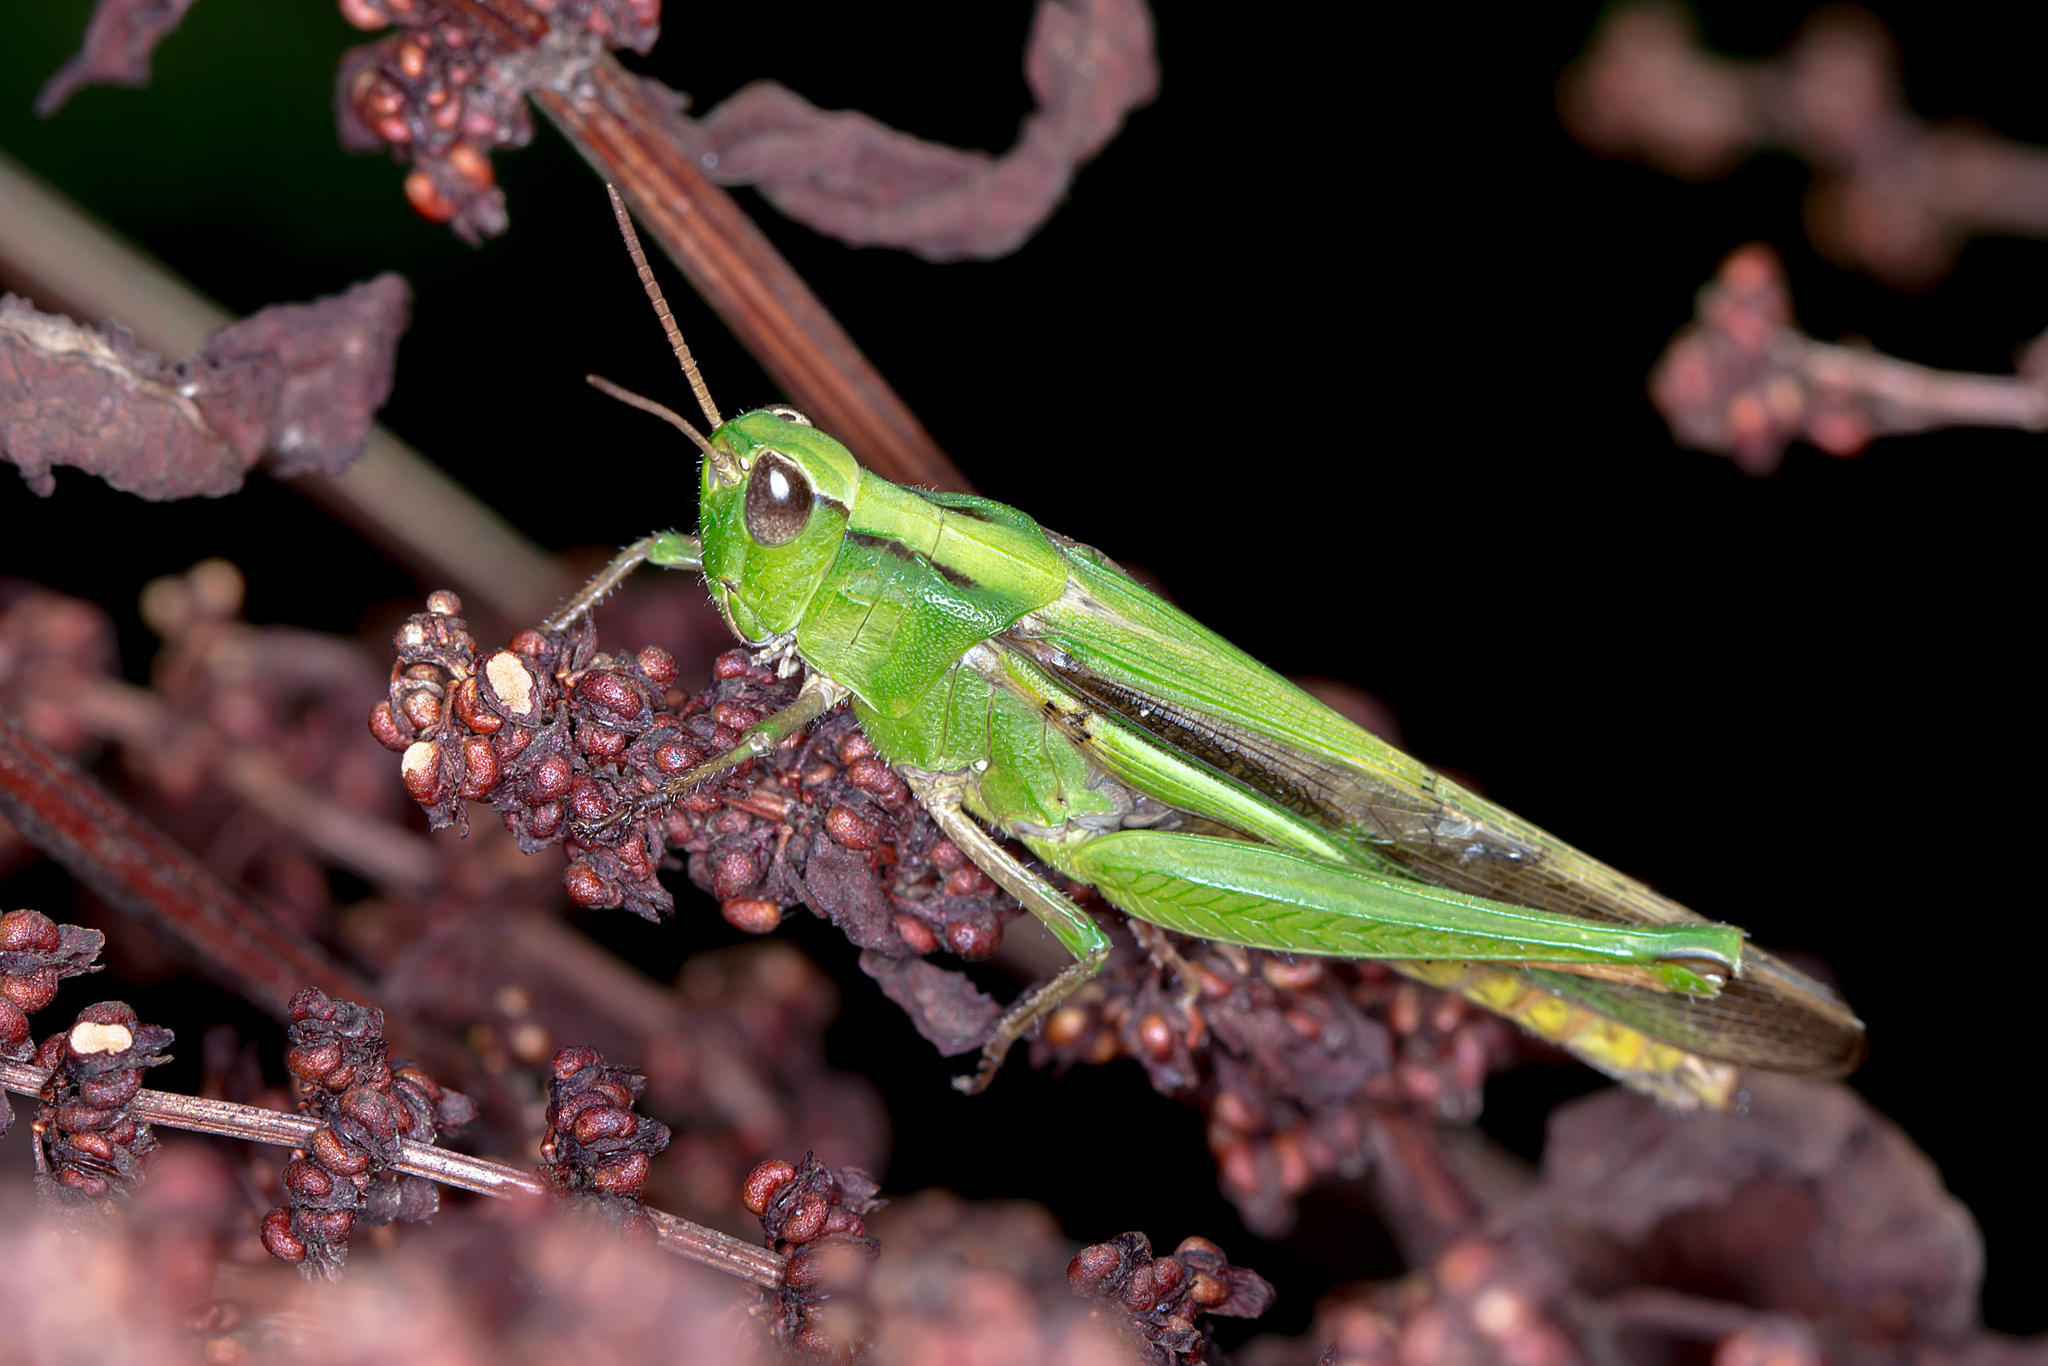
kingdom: Animalia
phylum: Arthropoda
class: Insecta
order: Orthoptera
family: Acrididae
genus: Schizobothrus
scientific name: Schizobothrus flavovittatus
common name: Disappearing grasshopper
